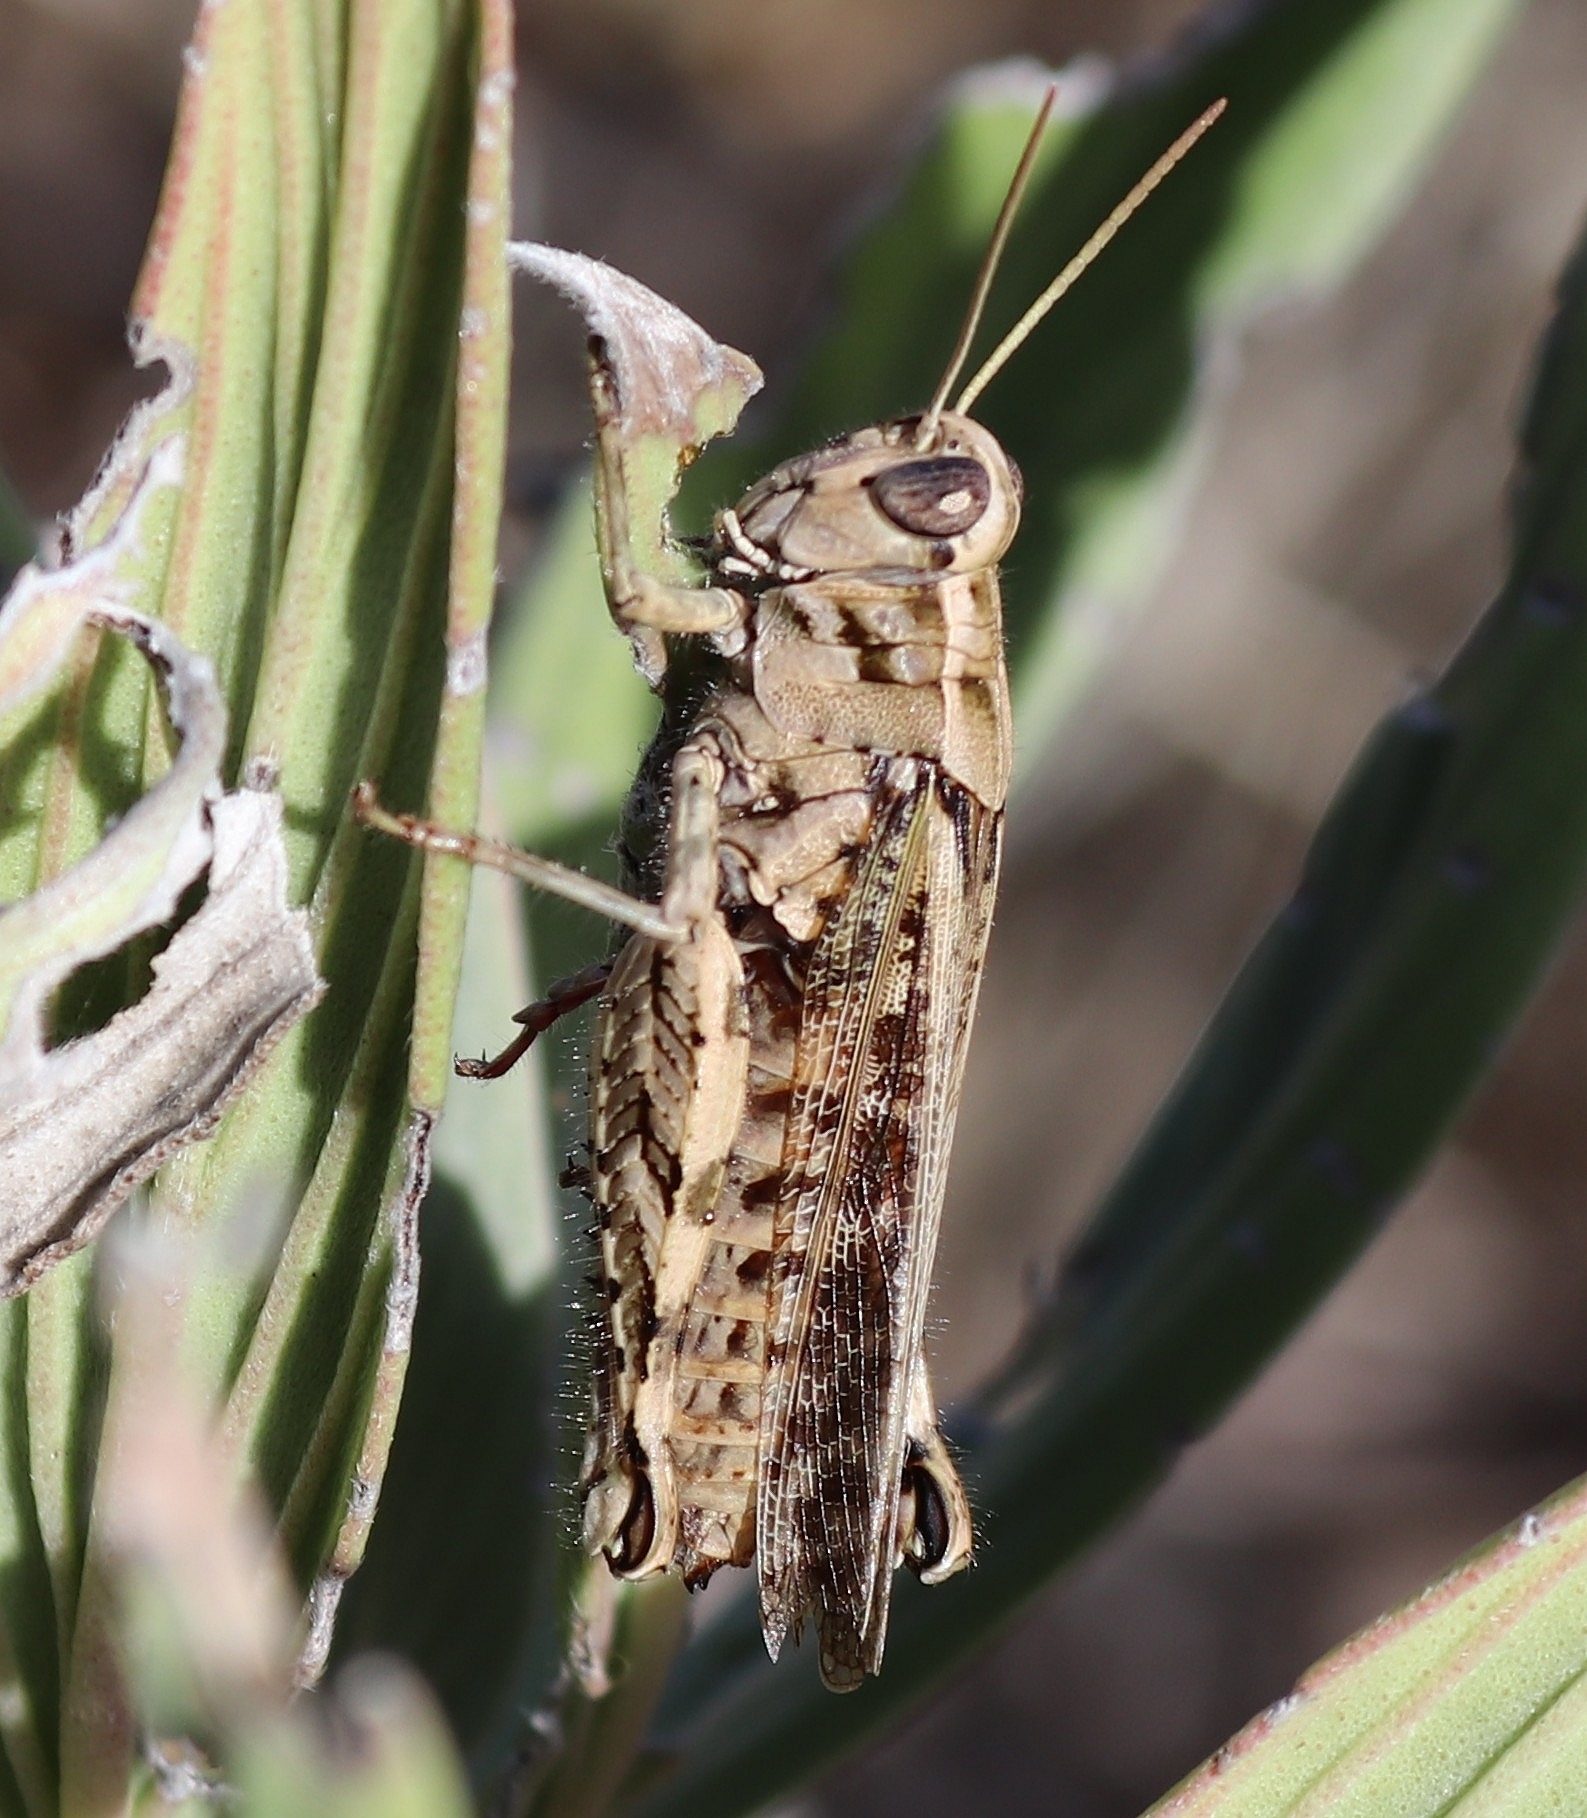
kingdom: Animalia
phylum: Arthropoda
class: Insecta
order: Orthoptera
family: Acrididae
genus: Calliptamus
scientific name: Calliptamus madeirae
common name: Madeira pincer grasshopper
